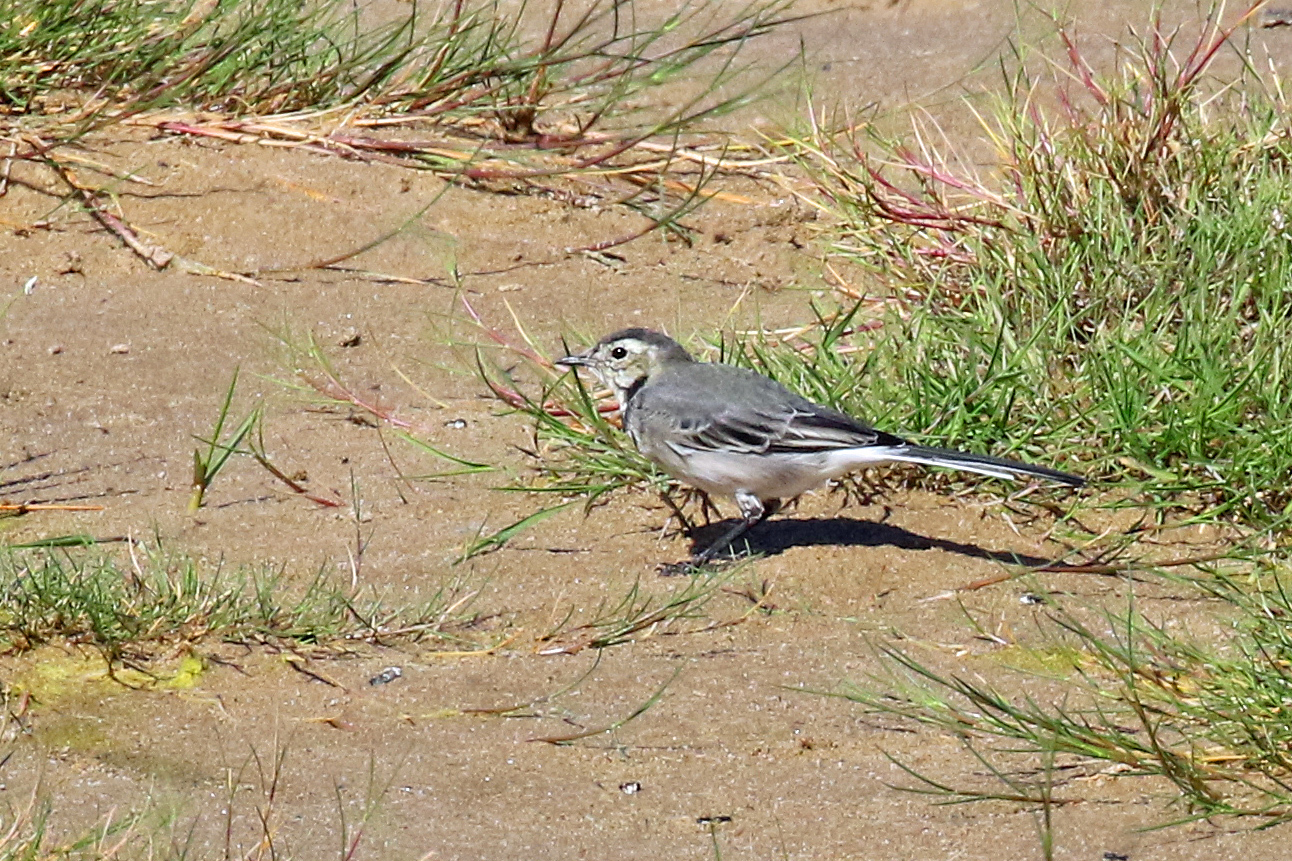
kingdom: Animalia
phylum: Chordata
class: Aves
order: Passeriformes
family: Motacillidae
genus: Motacilla
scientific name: Motacilla alba
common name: White wagtail
